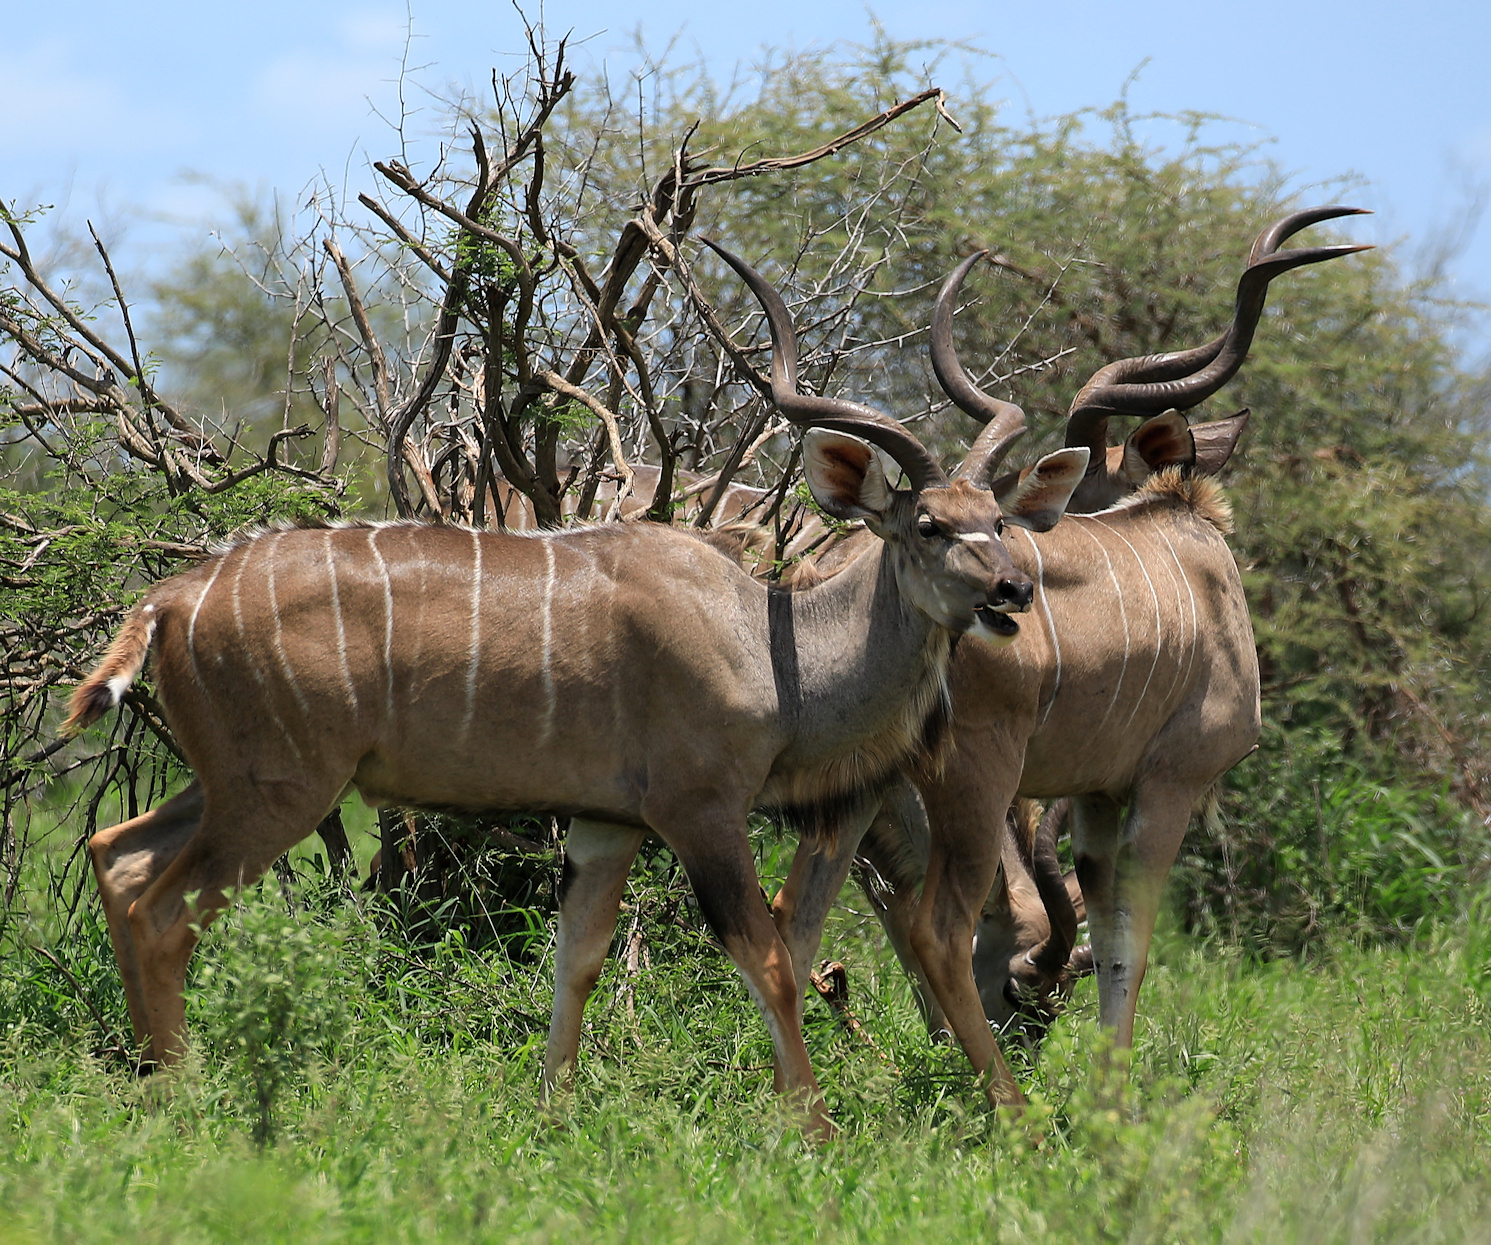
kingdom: Animalia
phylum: Chordata
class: Mammalia
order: Artiodactyla
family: Bovidae
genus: Tragelaphus
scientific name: Tragelaphus strepsiceros
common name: Greater kudu
